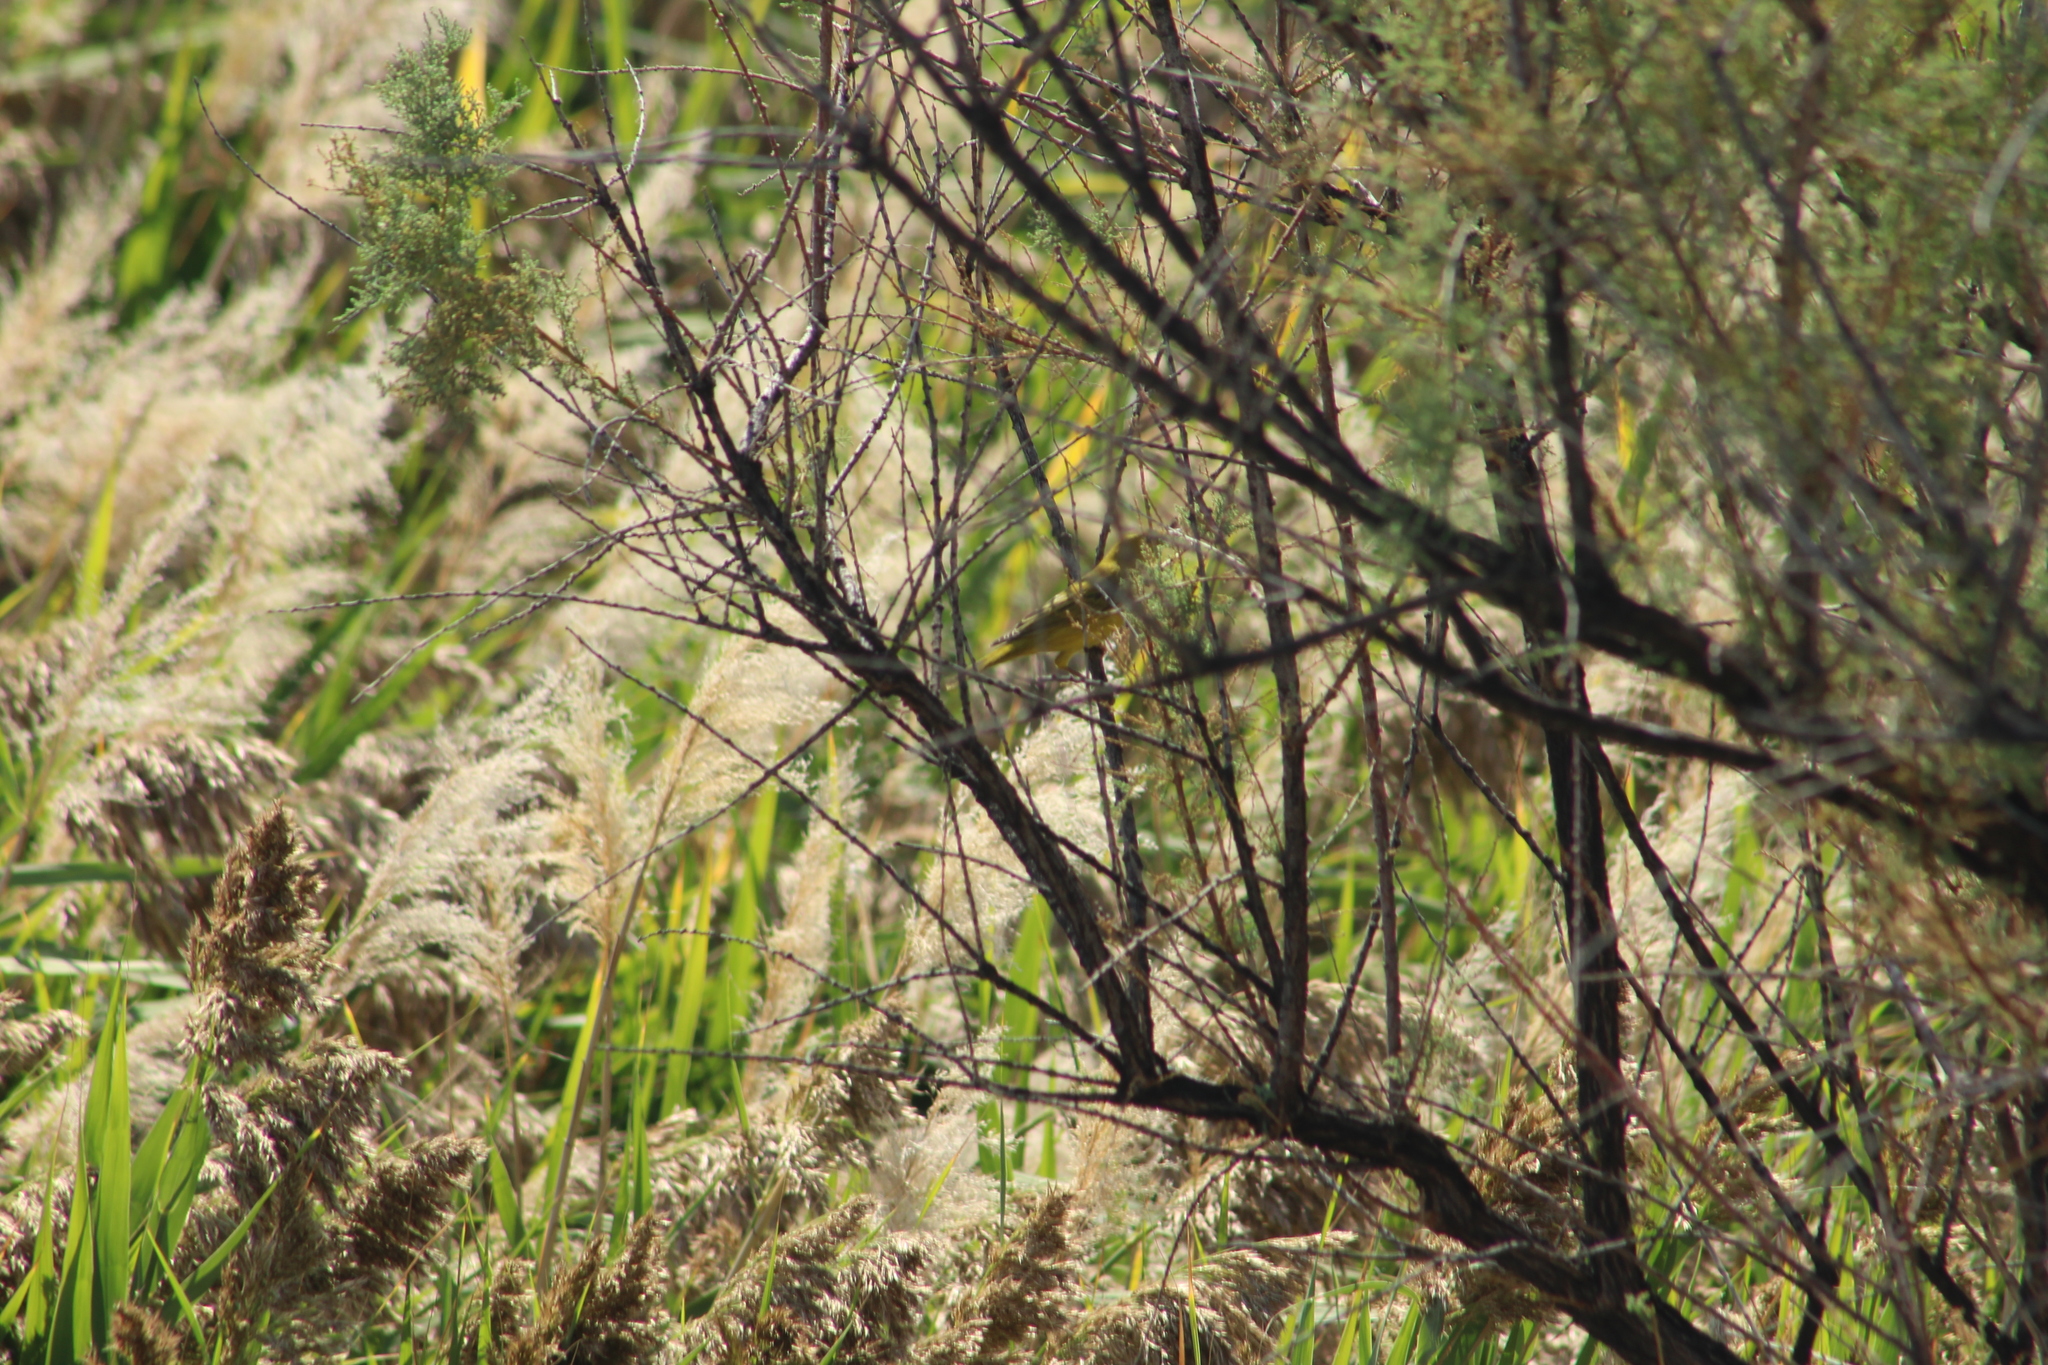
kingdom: Animalia
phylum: Chordata
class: Aves
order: Passeriformes
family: Parulidae
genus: Setophaga
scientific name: Setophaga petechia
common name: Yellow warbler
